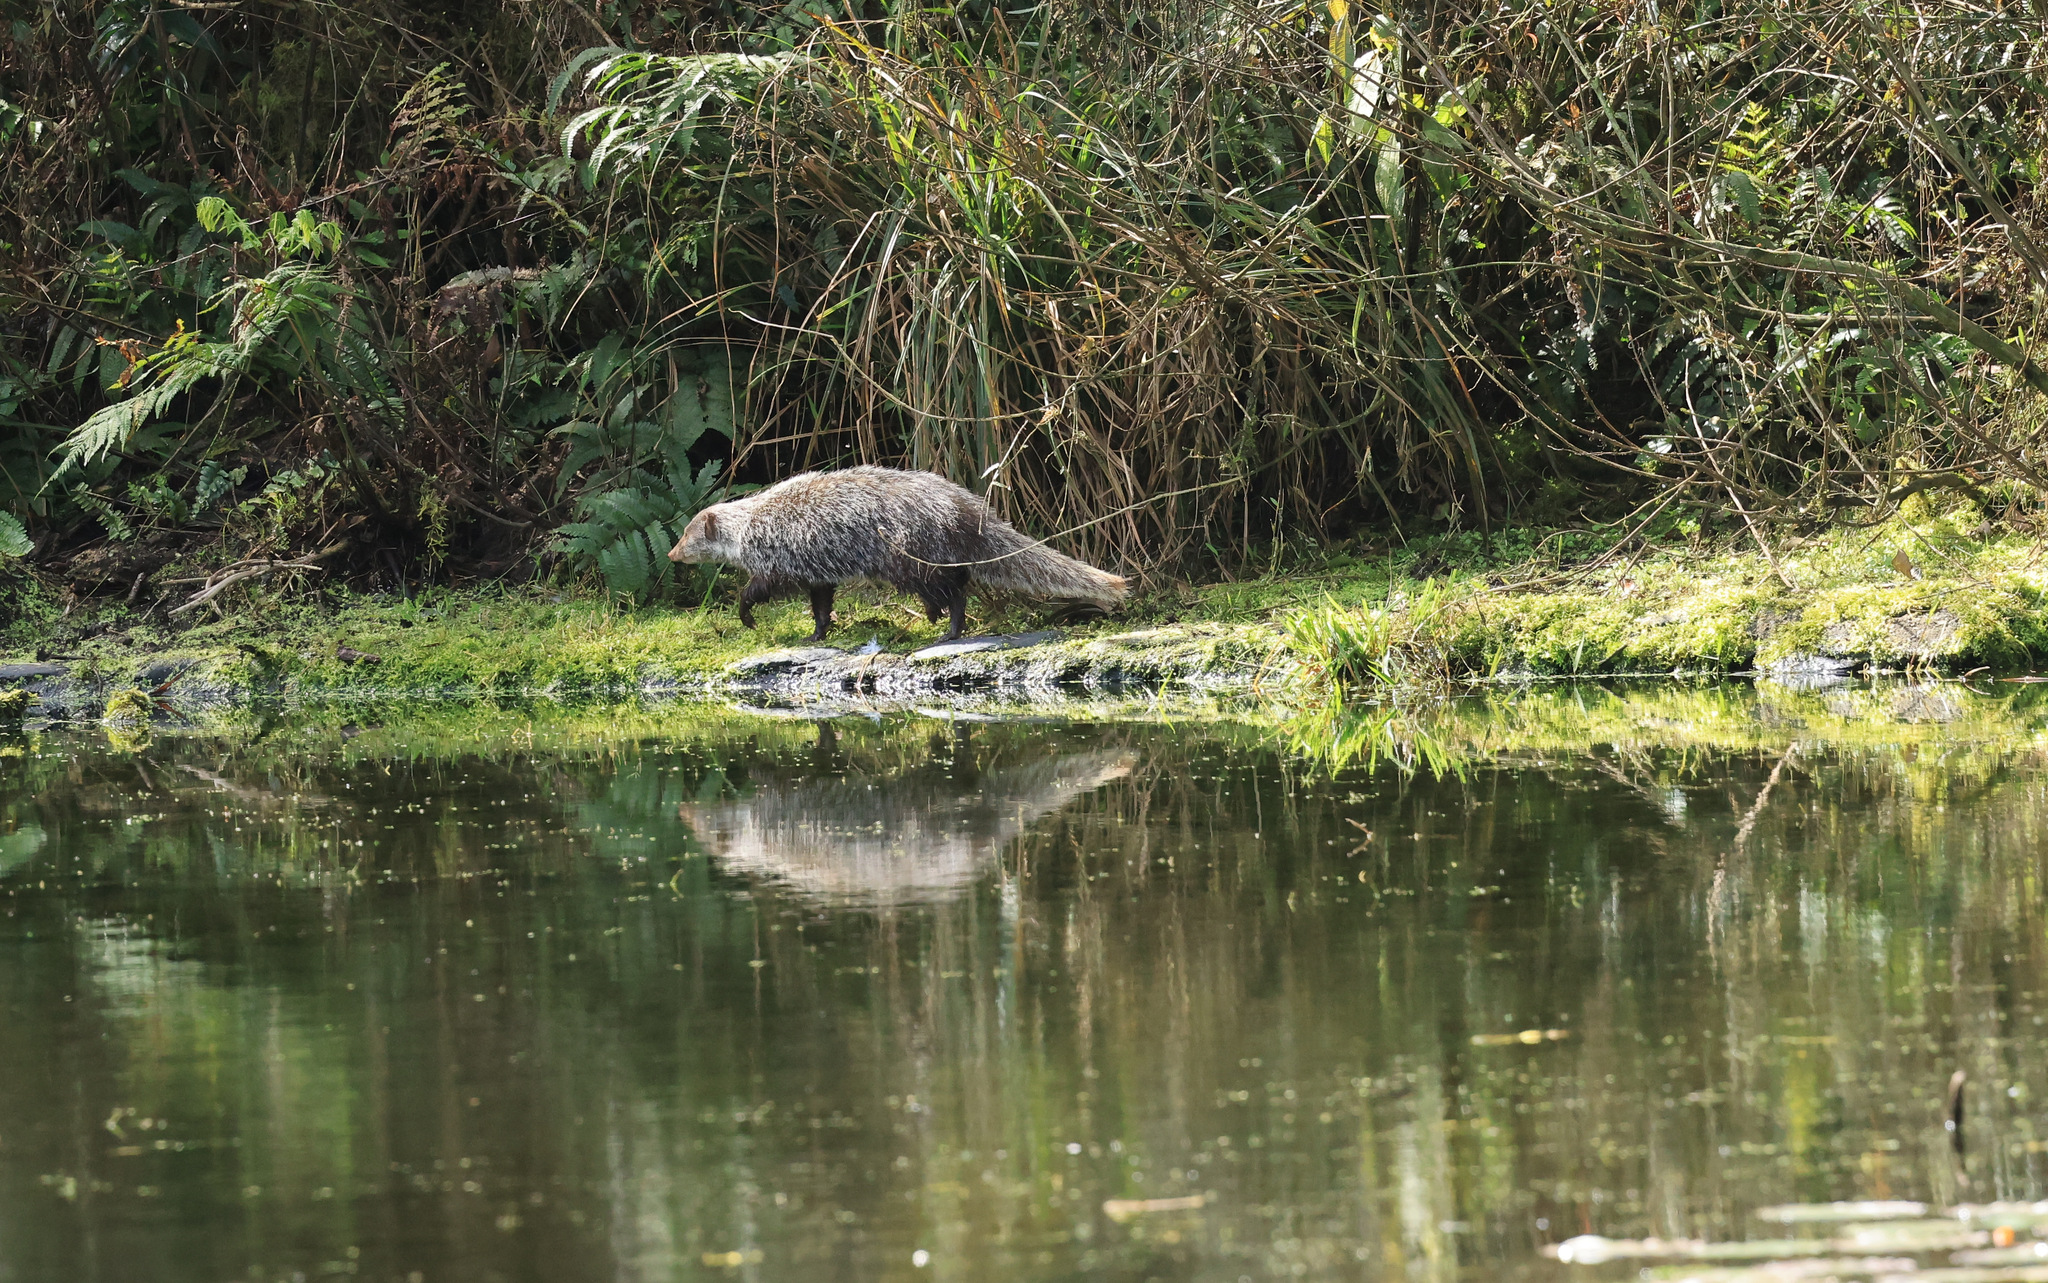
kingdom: Animalia
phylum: Chordata
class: Mammalia
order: Carnivora
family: Herpestidae
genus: Herpestes
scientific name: Herpestes urva
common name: Crab-eating mongoose
